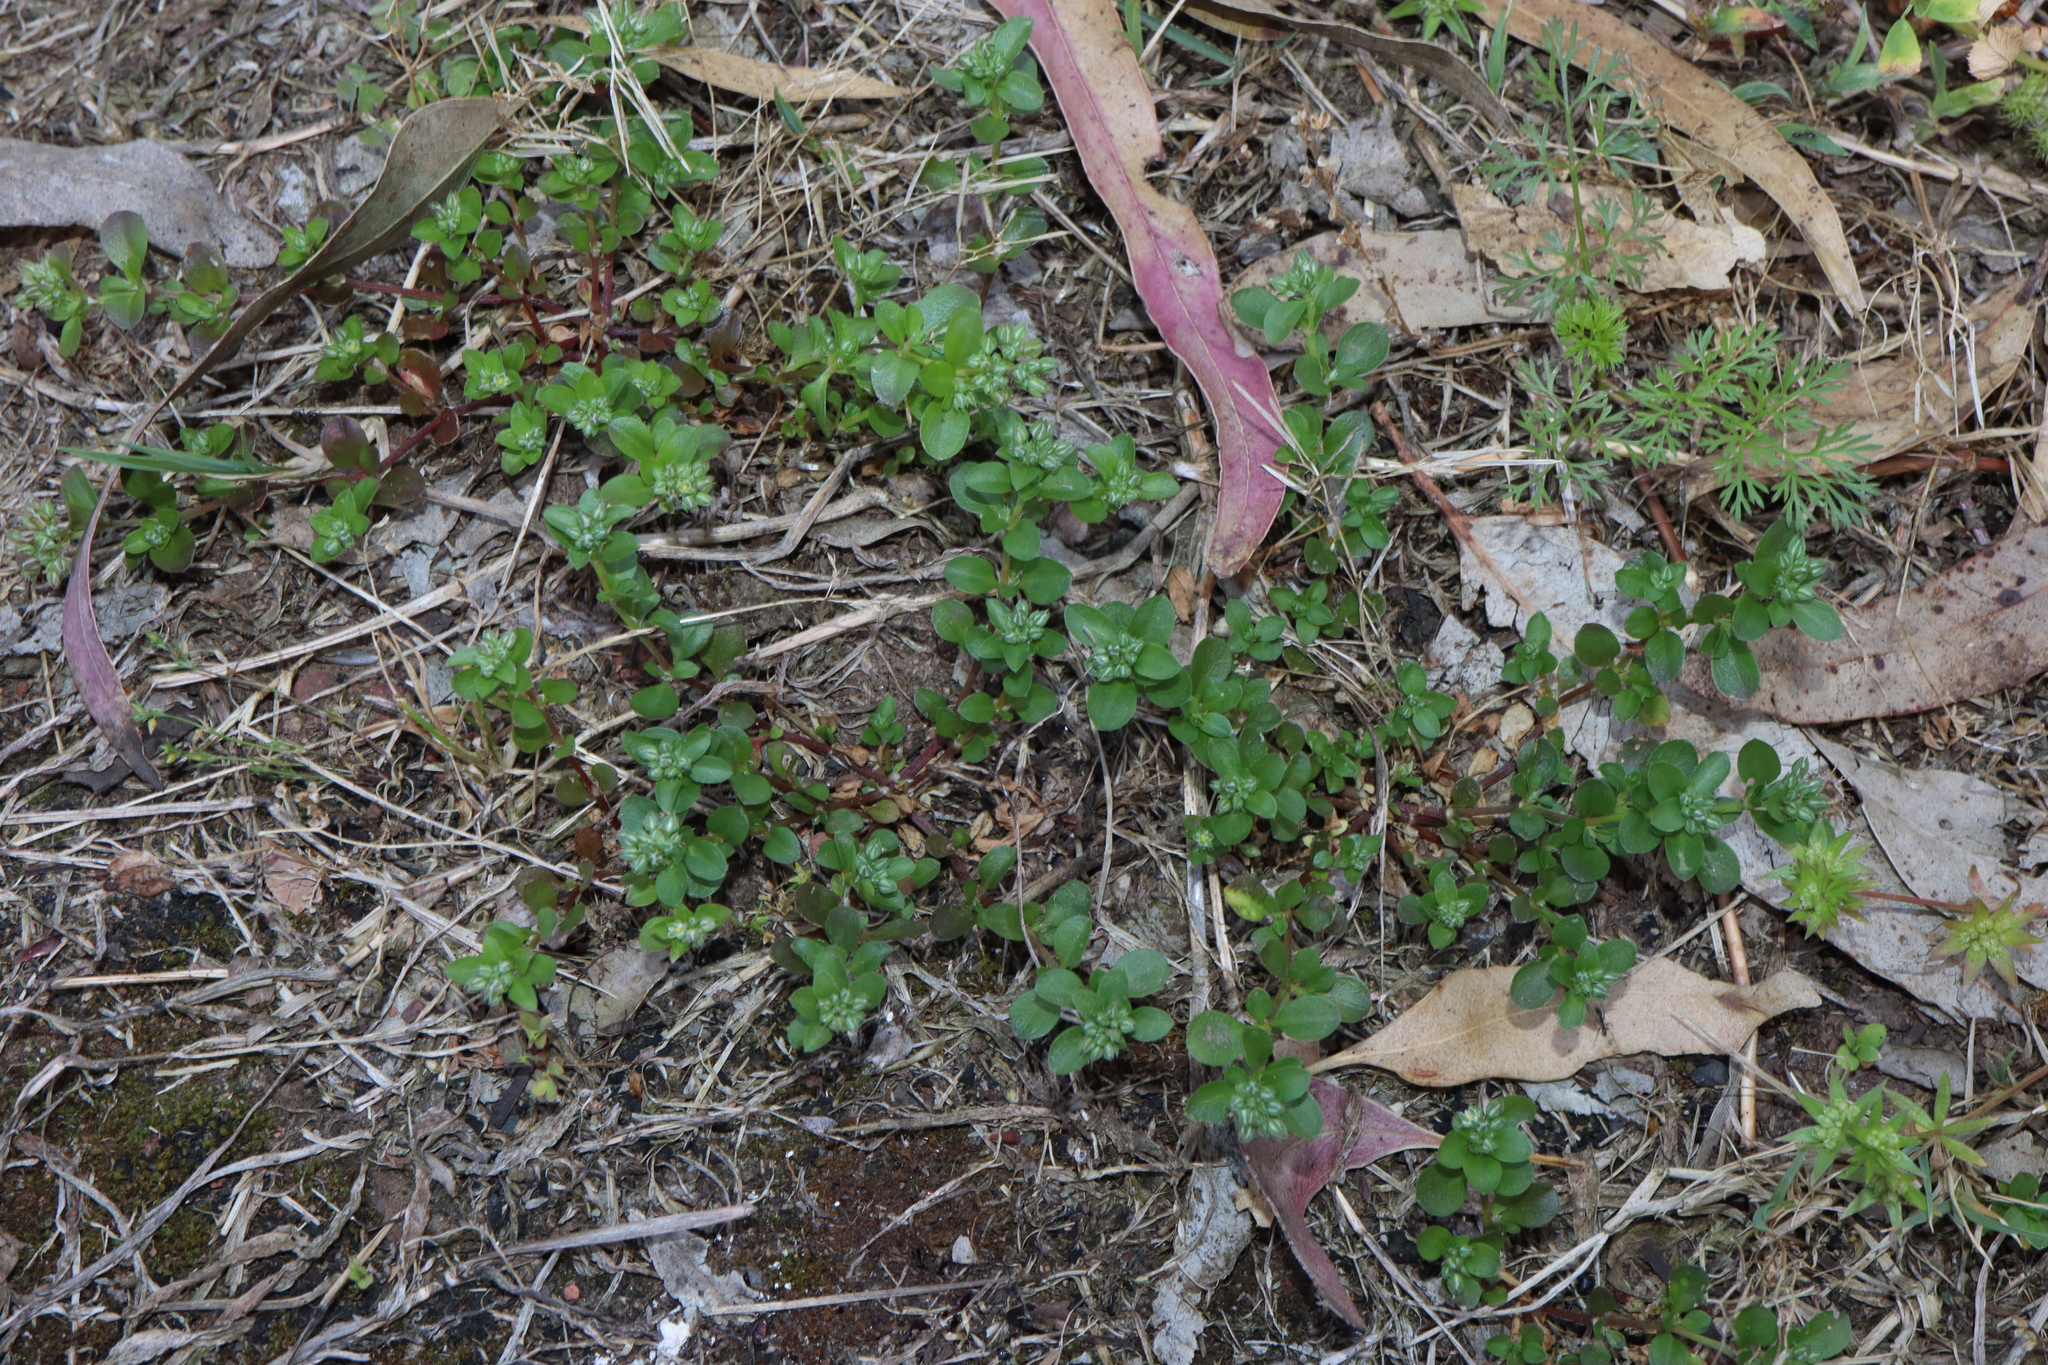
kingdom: Plantae
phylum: Tracheophyta
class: Magnoliopsida
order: Caryophyllales
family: Caryophyllaceae
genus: Polycarpon
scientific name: Polycarpon tetraphyllum
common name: Four-leaved all-seed
